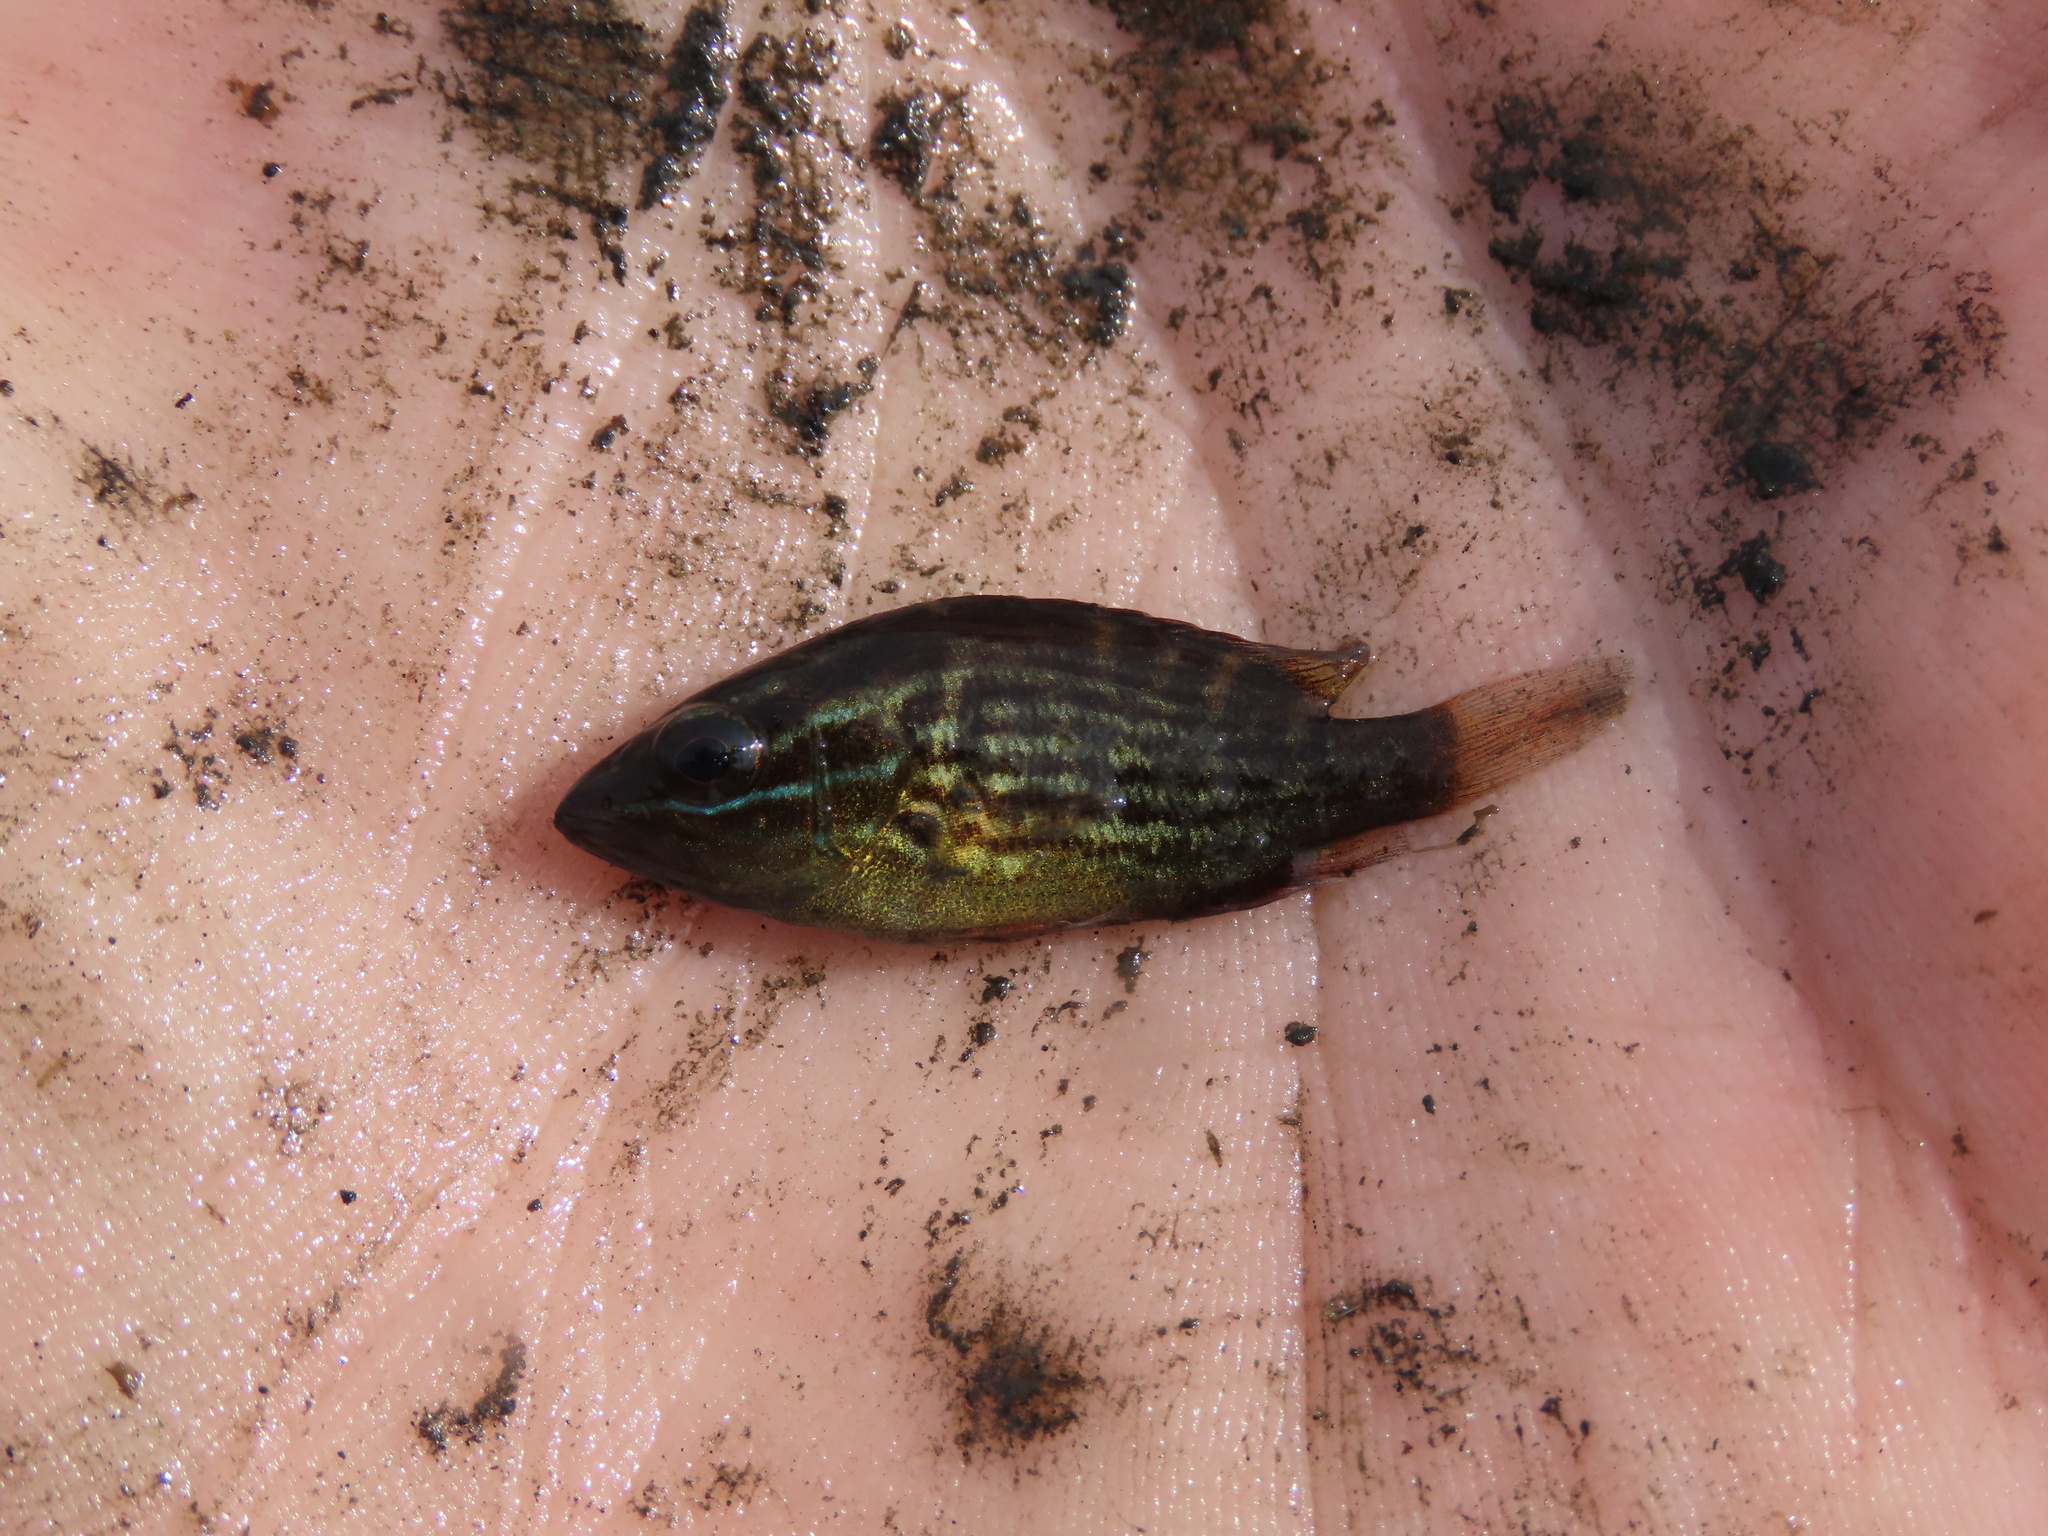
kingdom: Animalia
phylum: Chordata
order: Perciformes
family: Lutjanidae
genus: Lutjanus
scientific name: Lutjanus griseus
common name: Gray snapper
